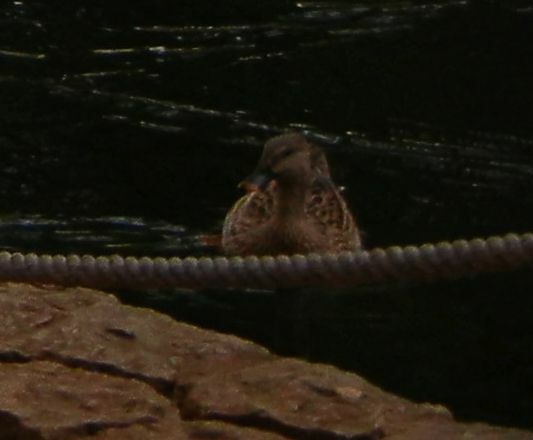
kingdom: Animalia
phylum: Chordata
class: Aves
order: Anseriformes
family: Anatidae
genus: Anas
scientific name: Anas platyrhynchos
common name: Mallard
